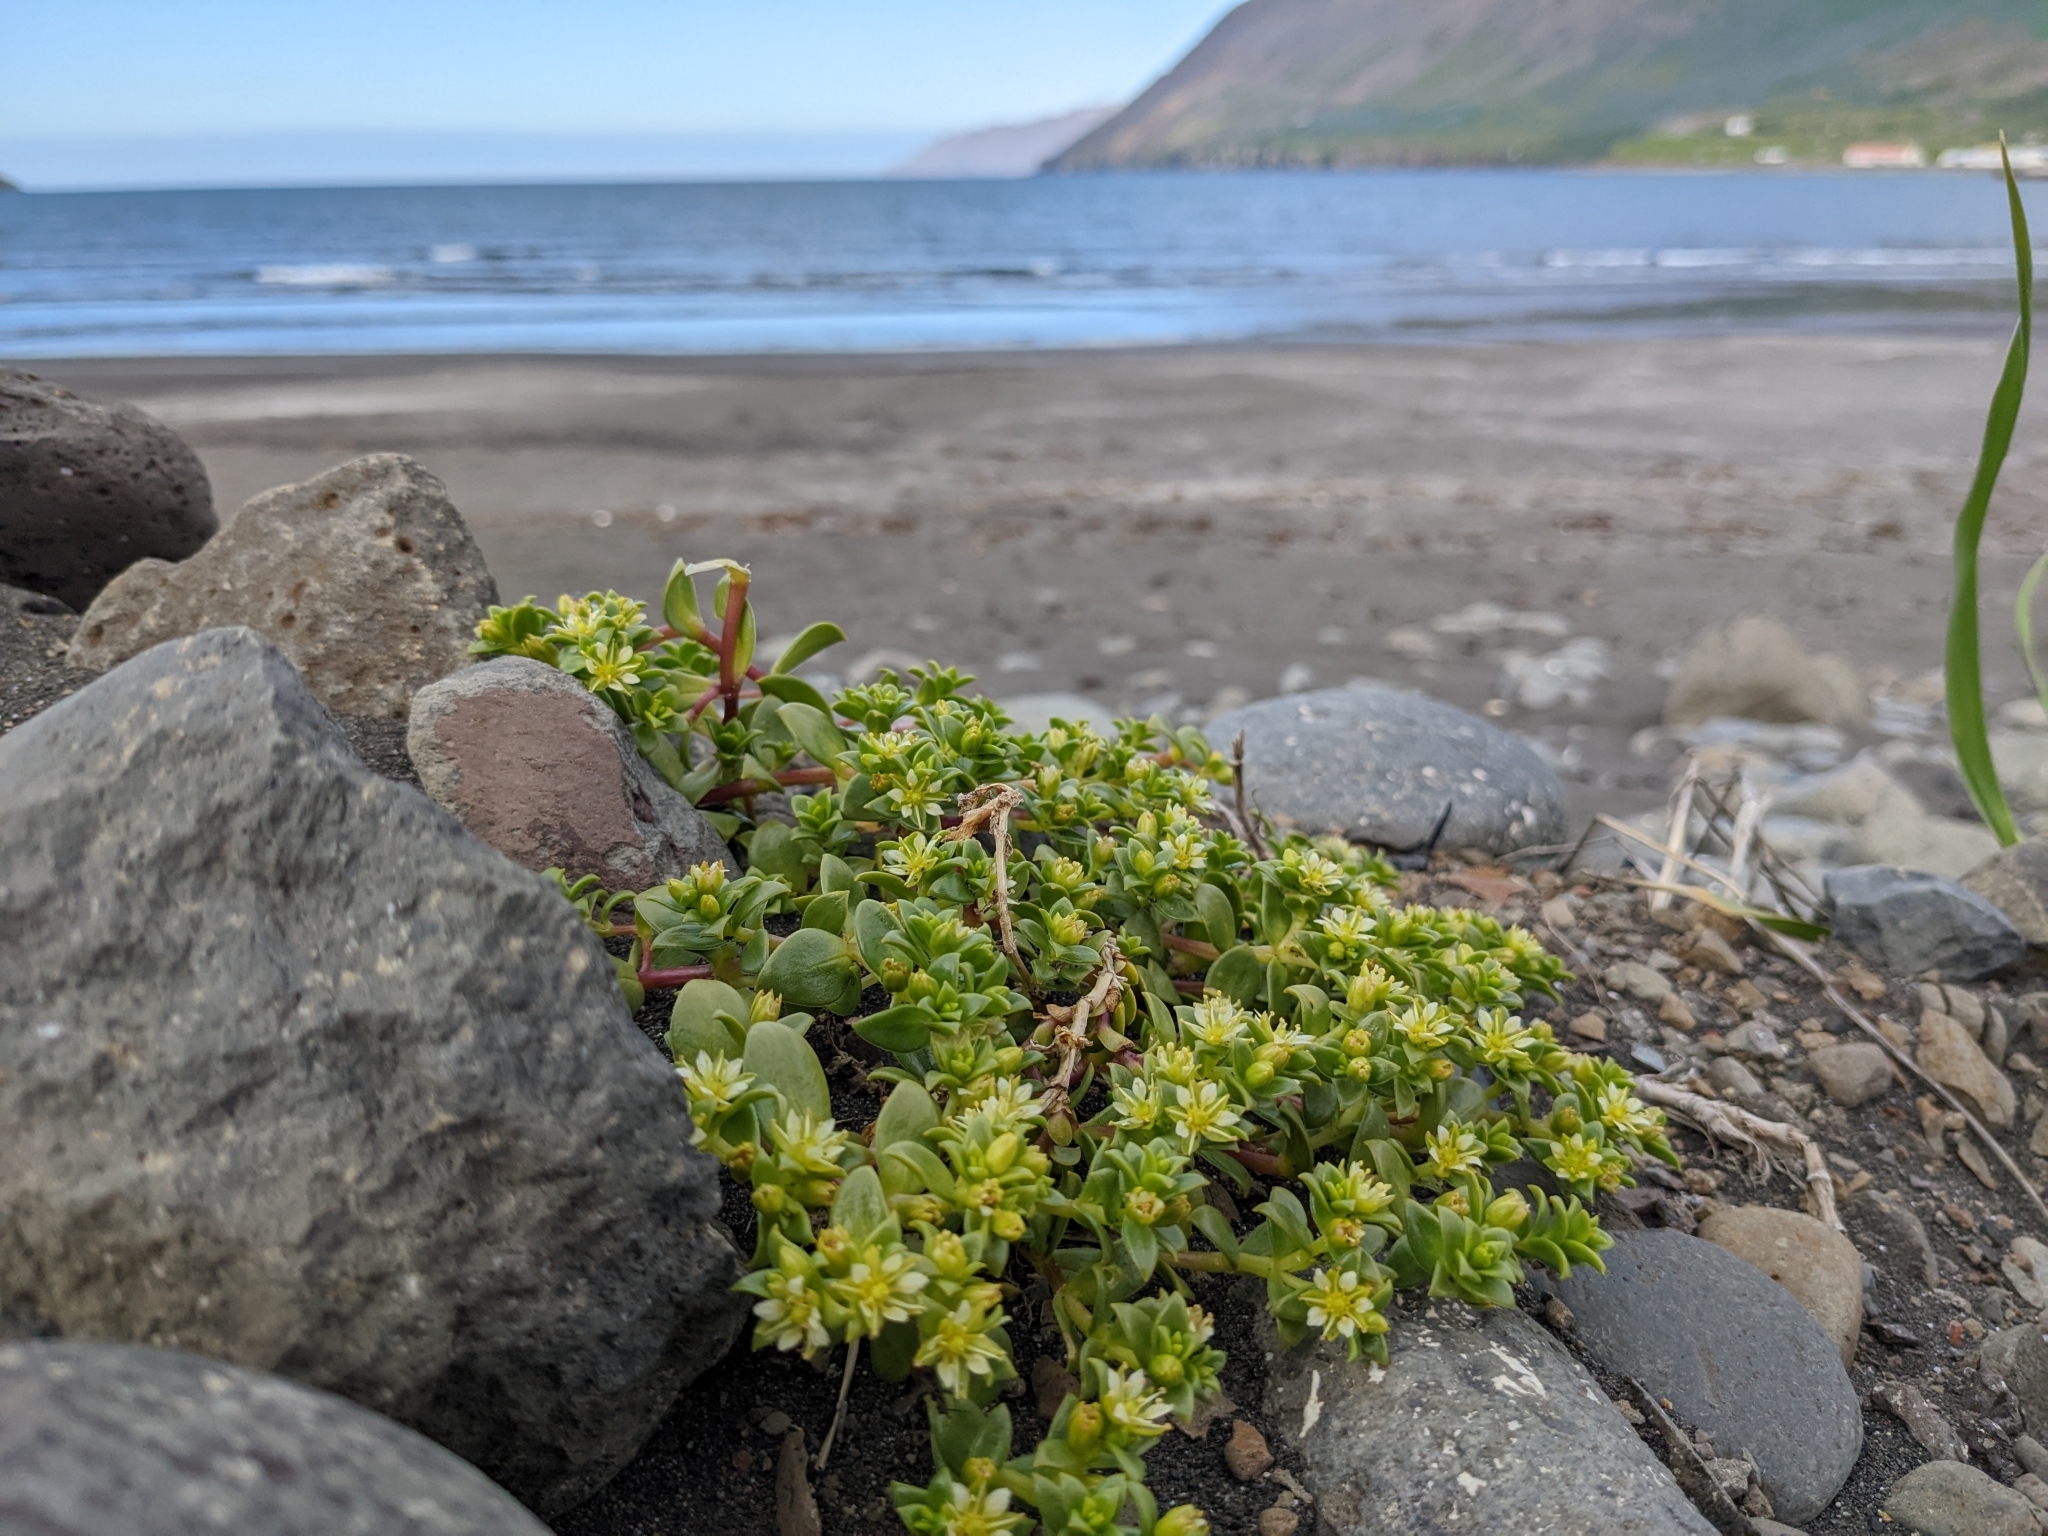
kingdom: Plantae
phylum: Tracheophyta
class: Magnoliopsida
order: Caryophyllales
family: Caryophyllaceae
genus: Honckenya
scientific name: Honckenya peploides
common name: Sea sandwort
